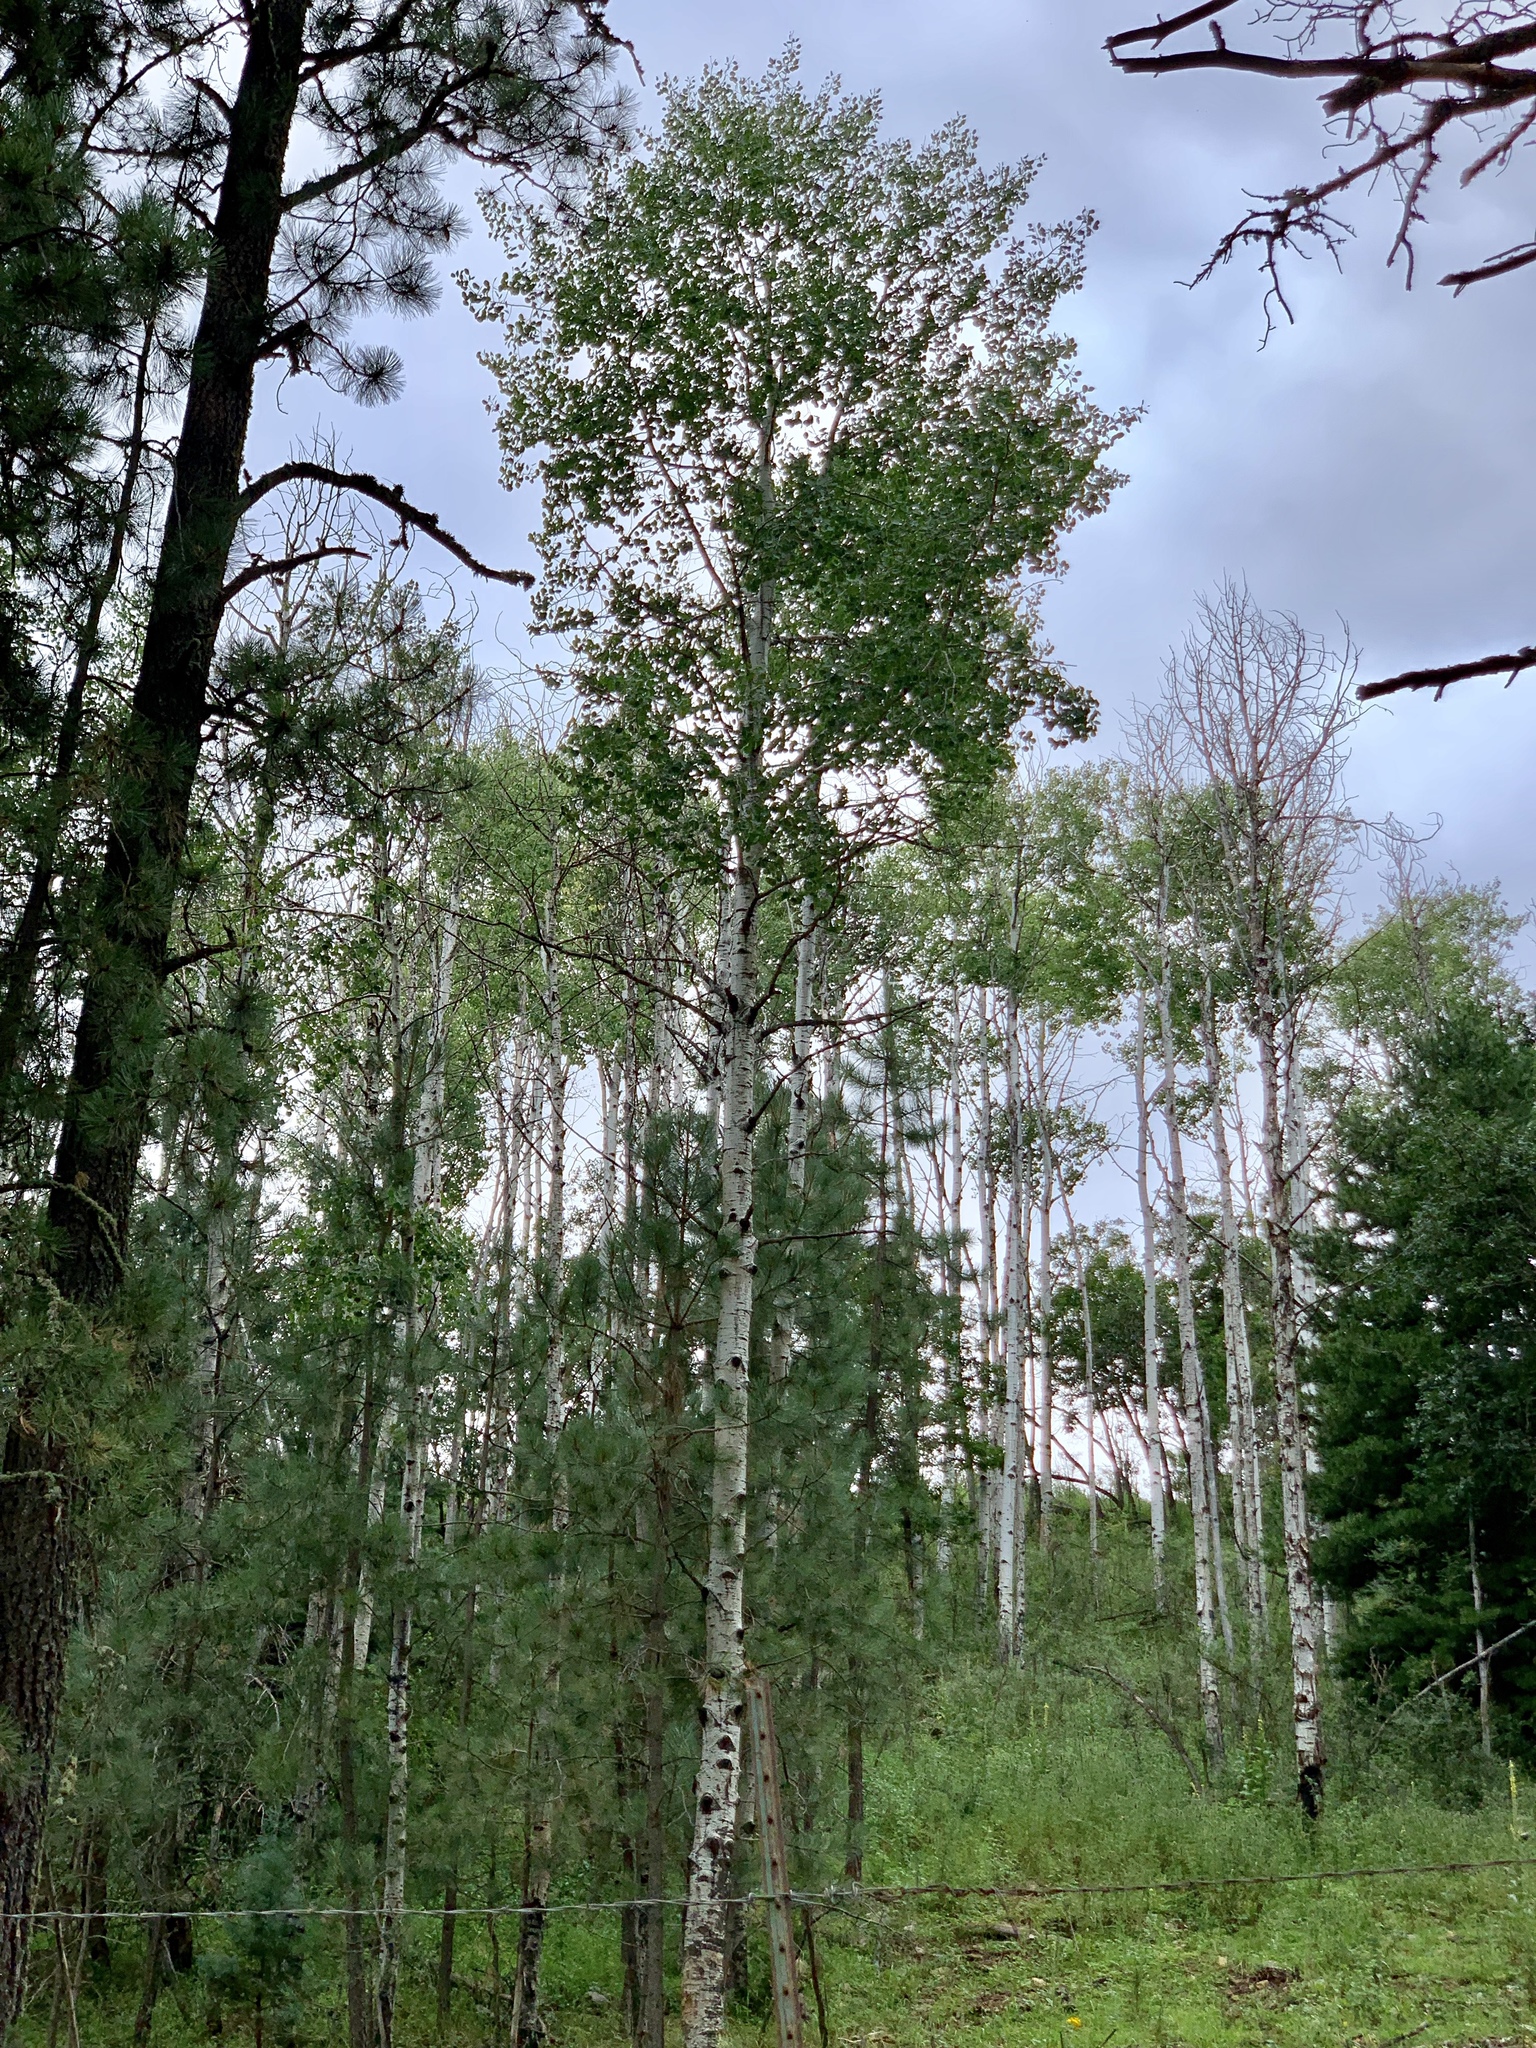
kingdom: Plantae
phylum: Tracheophyta
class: Magnoliopsida
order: Malpighiales
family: Salicaceae
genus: Populus
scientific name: Populus tremuloides
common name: Quaking aspen
